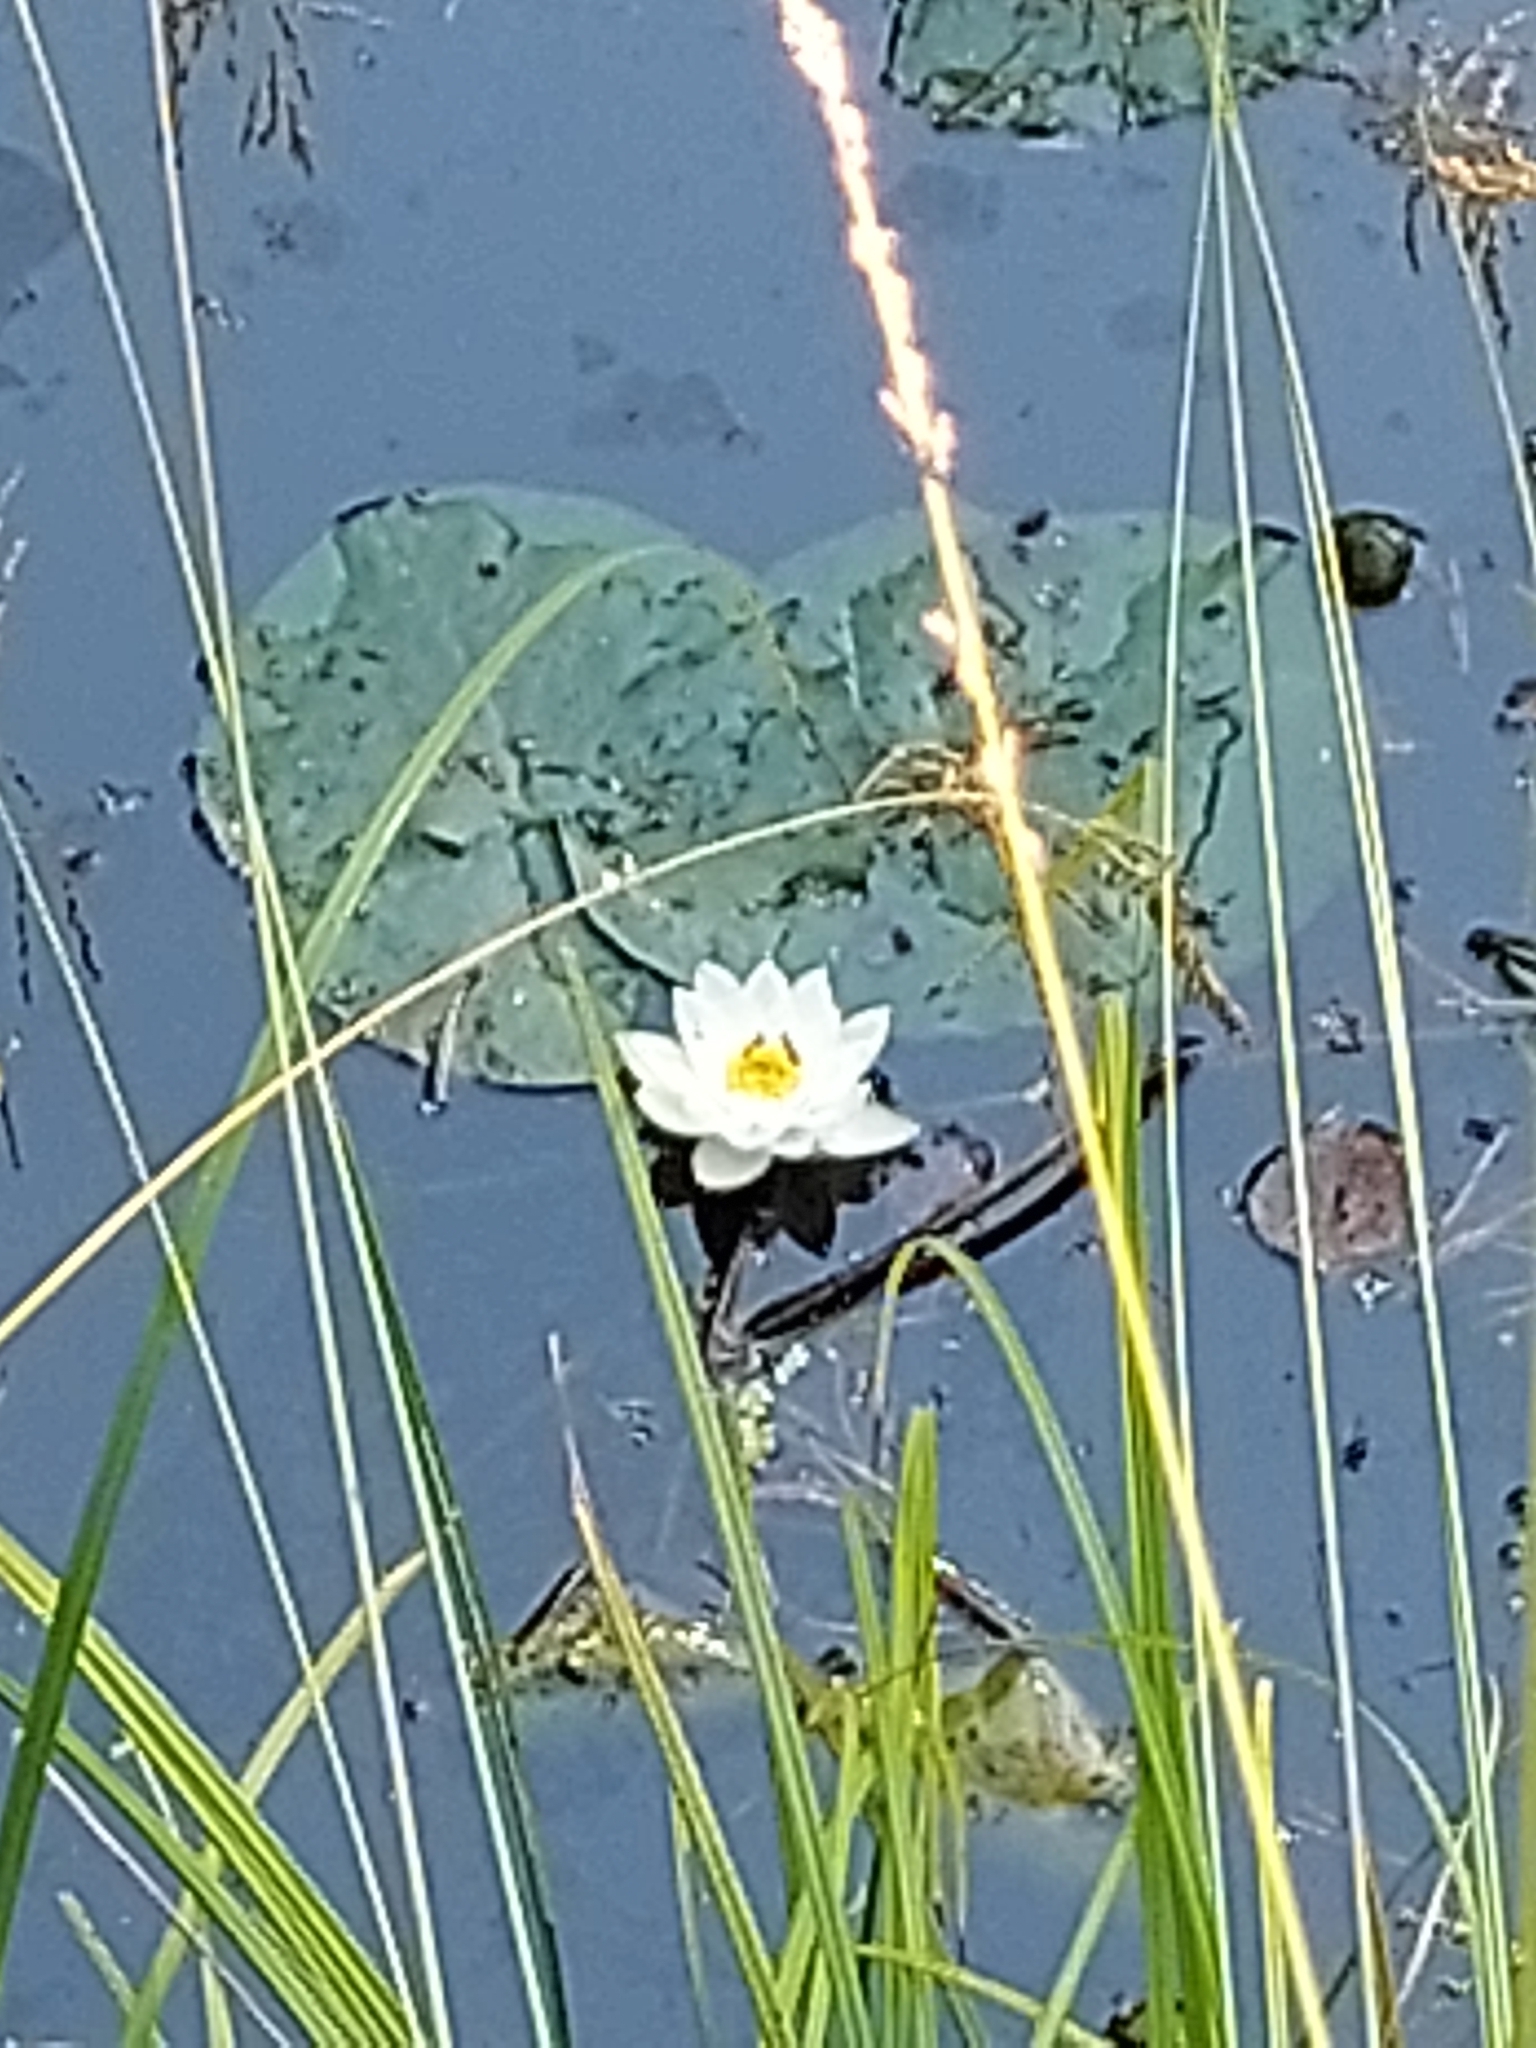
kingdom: Plantae
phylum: Tracheophyta
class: Magnoliopsida
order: Nymphaeales
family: Nymphaeaceae
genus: Nymphaea
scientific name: Nymphaea candida
